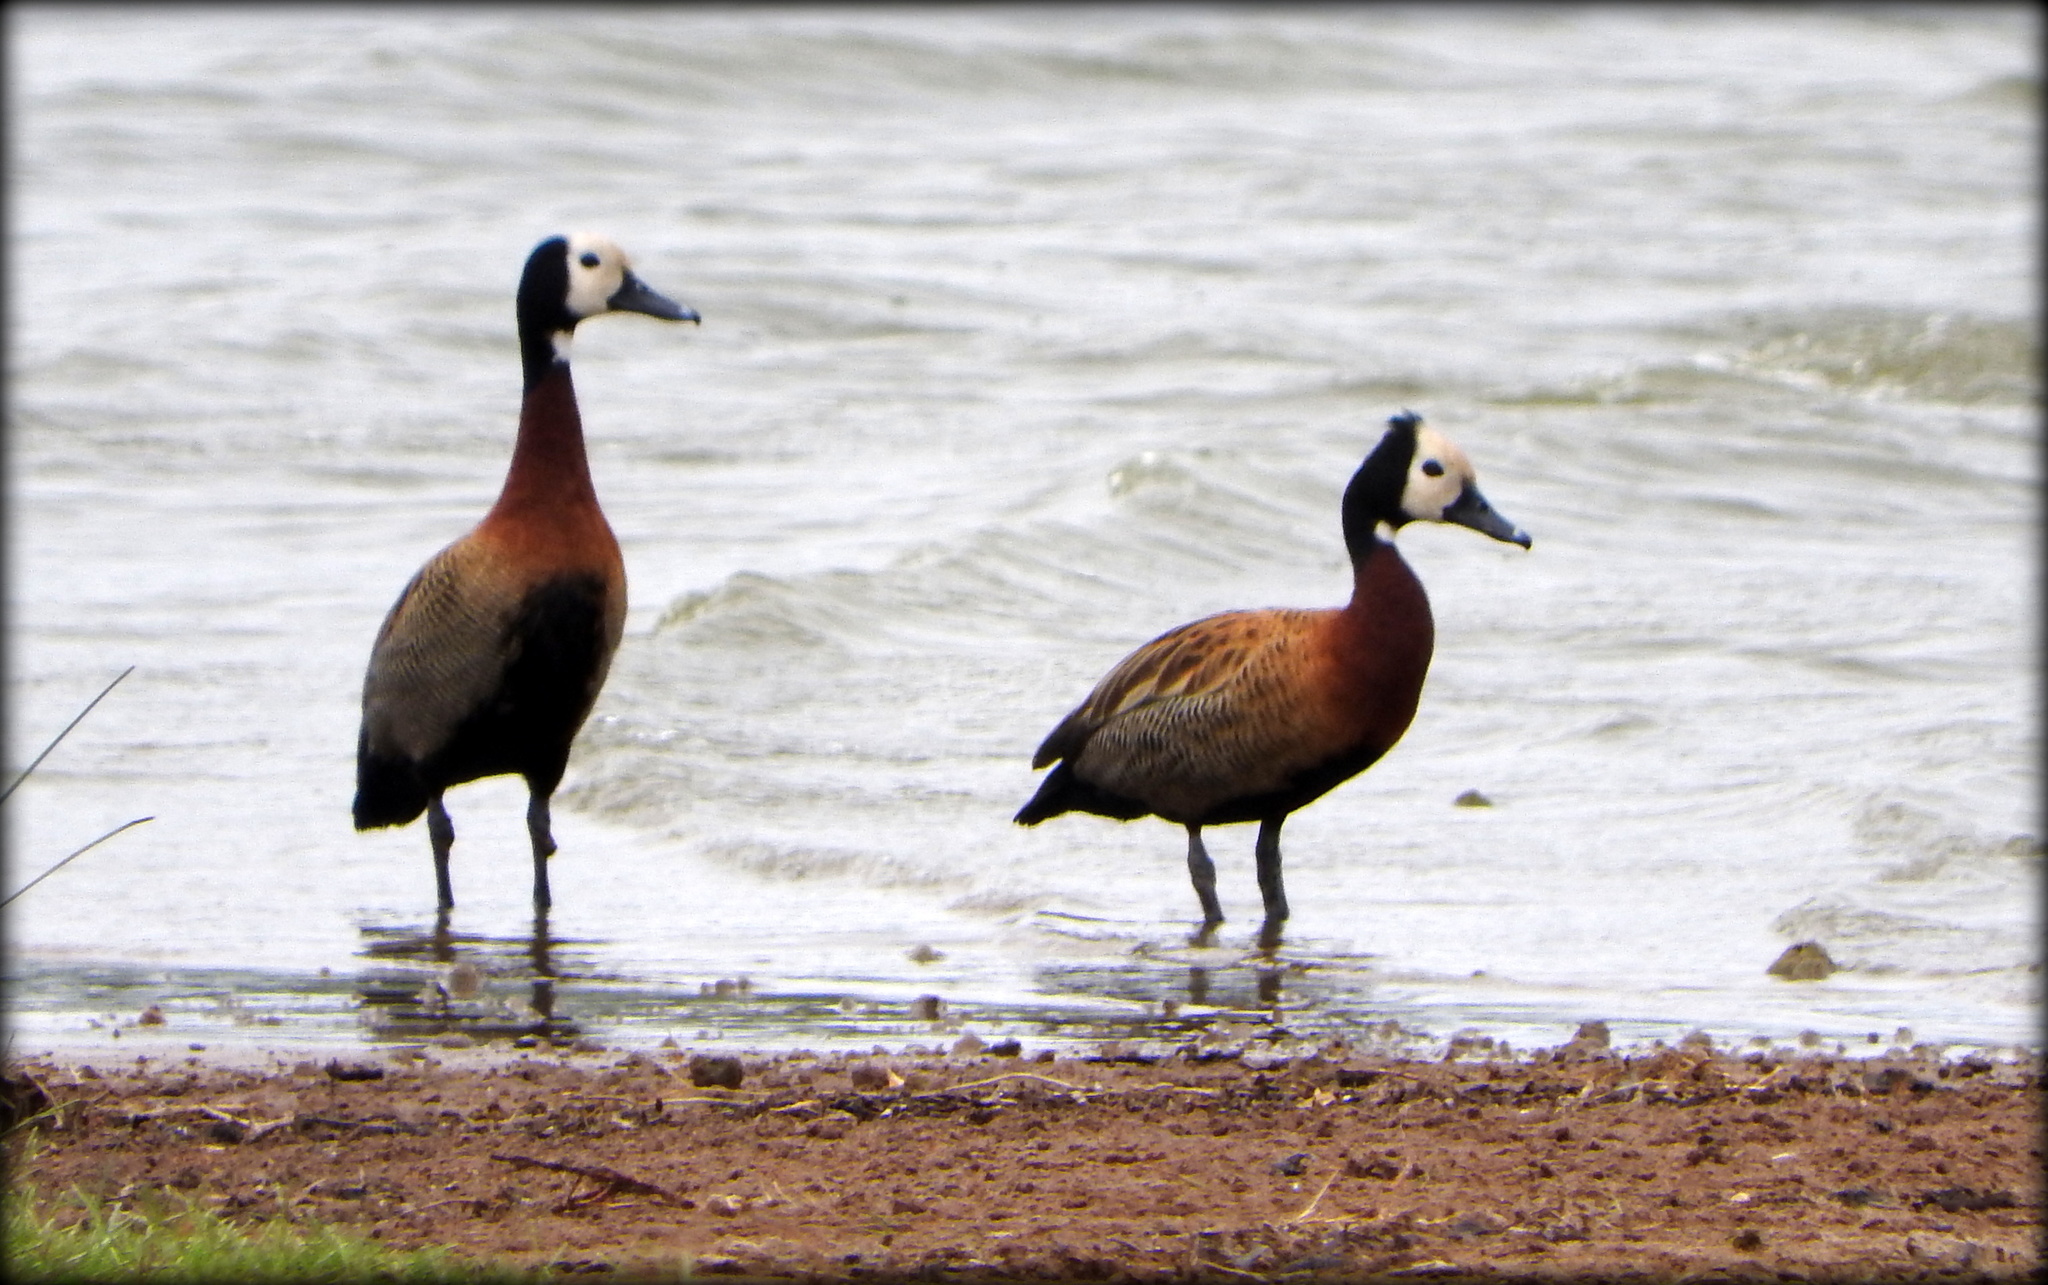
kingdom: Animalia
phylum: Chordata
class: Aves
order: Anseriformes
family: Anatidae
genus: Dendrocygna
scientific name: Dendrocygna viduata
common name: White-faced whistling duck
